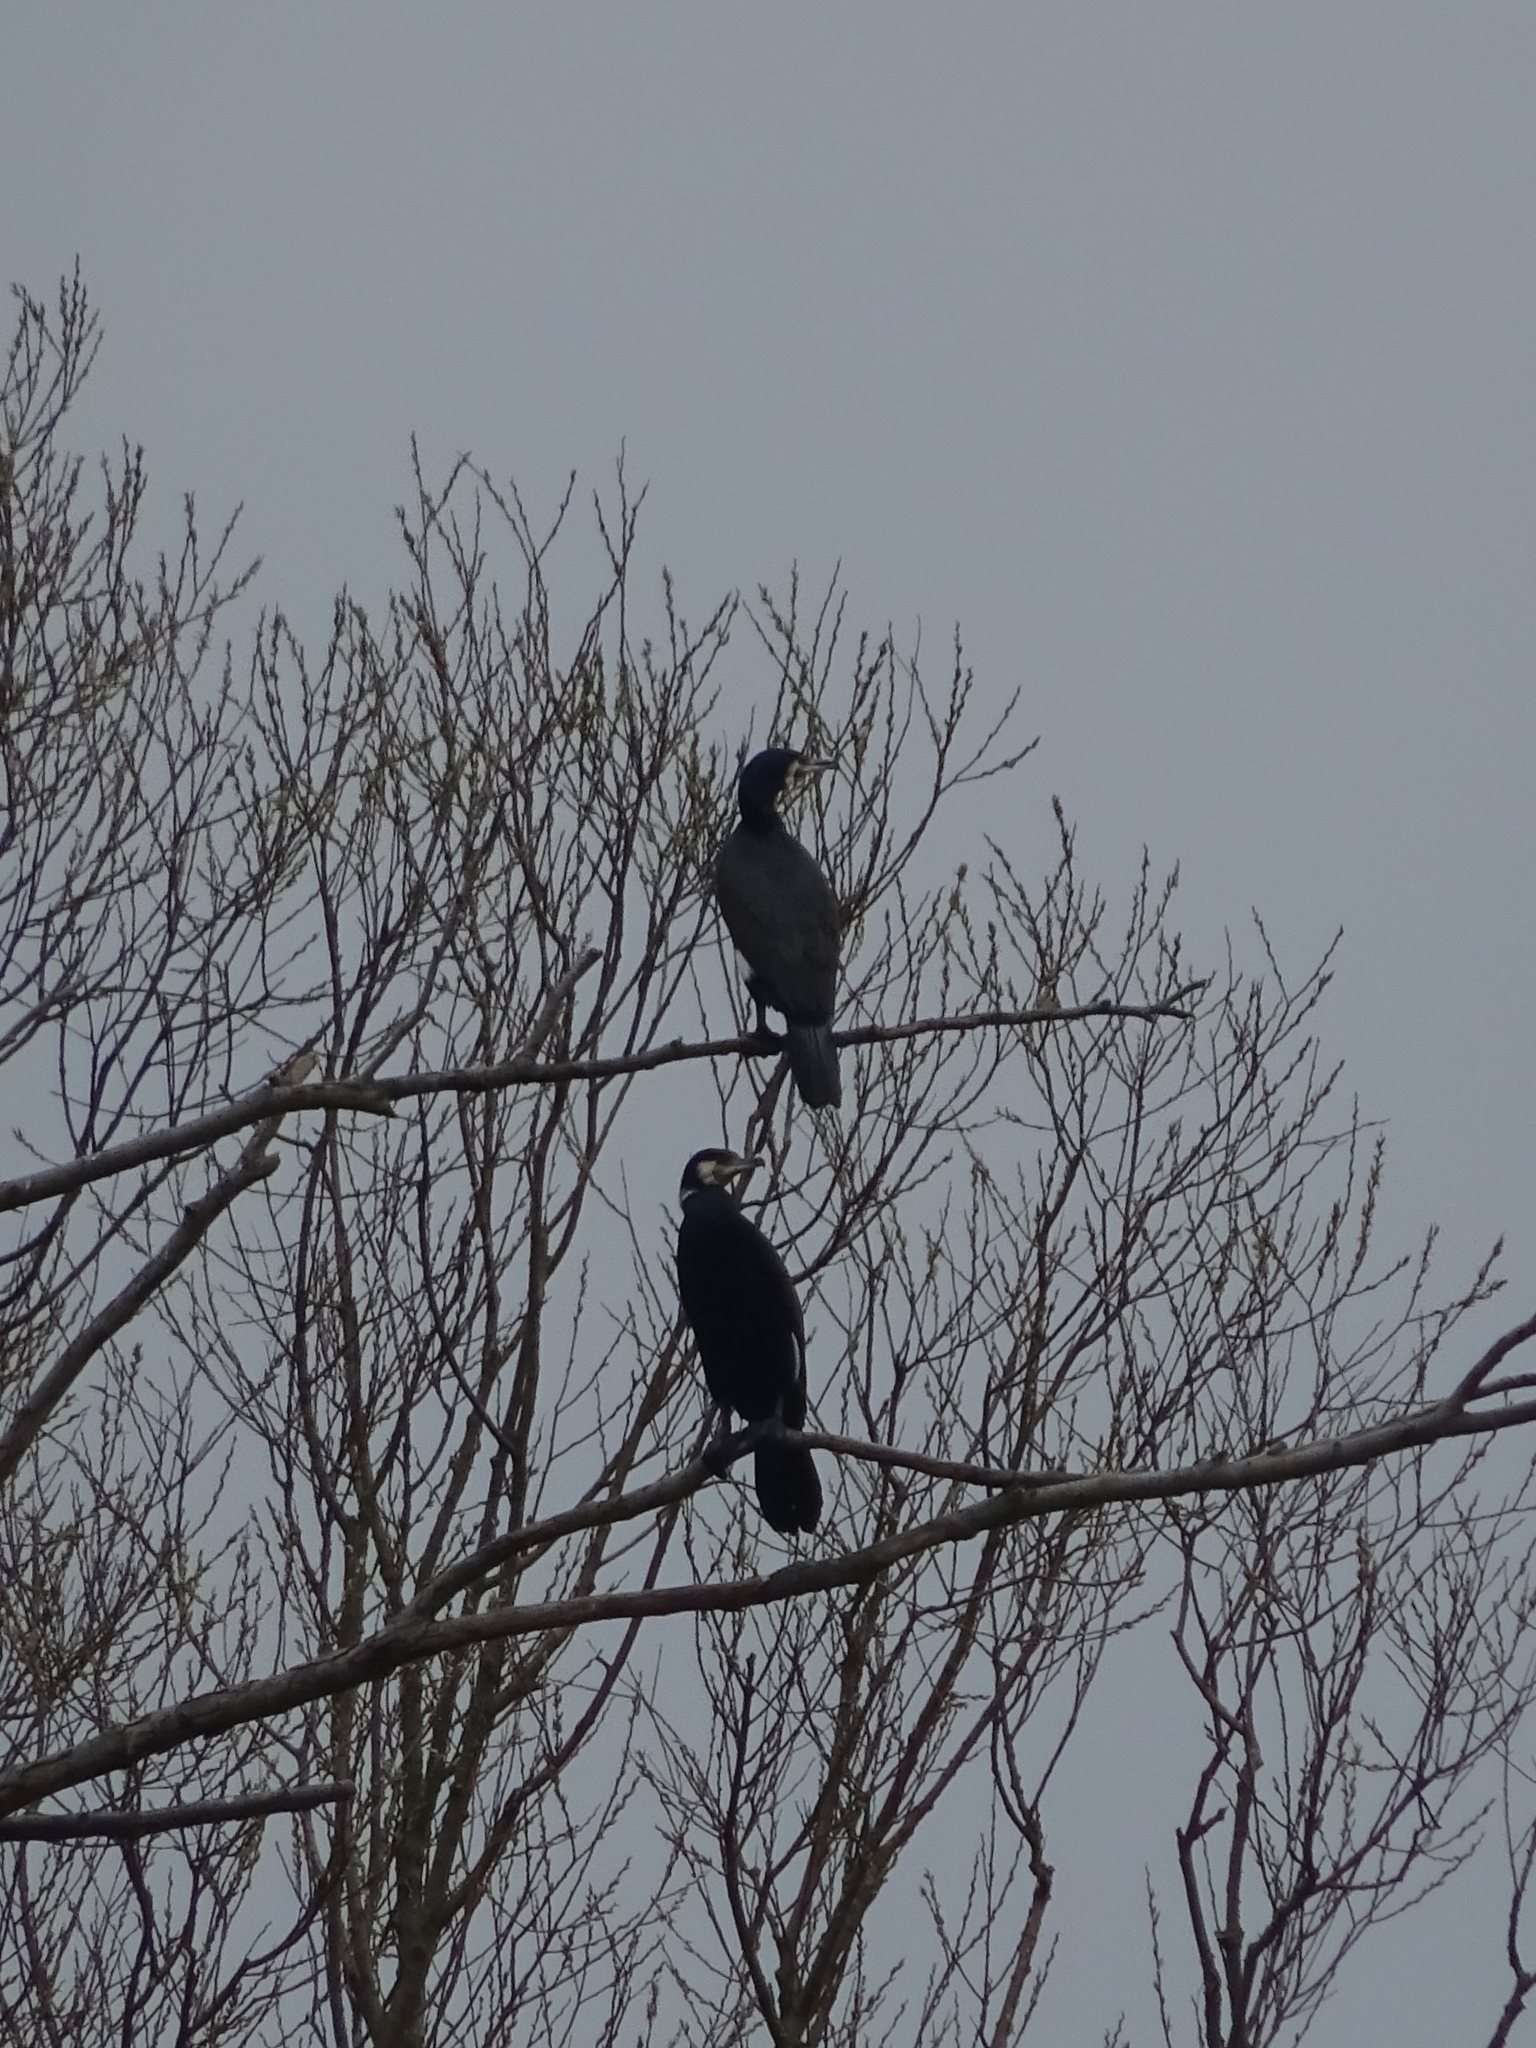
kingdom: Animalia
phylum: Chordata
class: Aves
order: Suliformes
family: Phalacrocoracidae
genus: Phalacrocorax
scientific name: Phalacrocorax carbo
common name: Great cormorant
